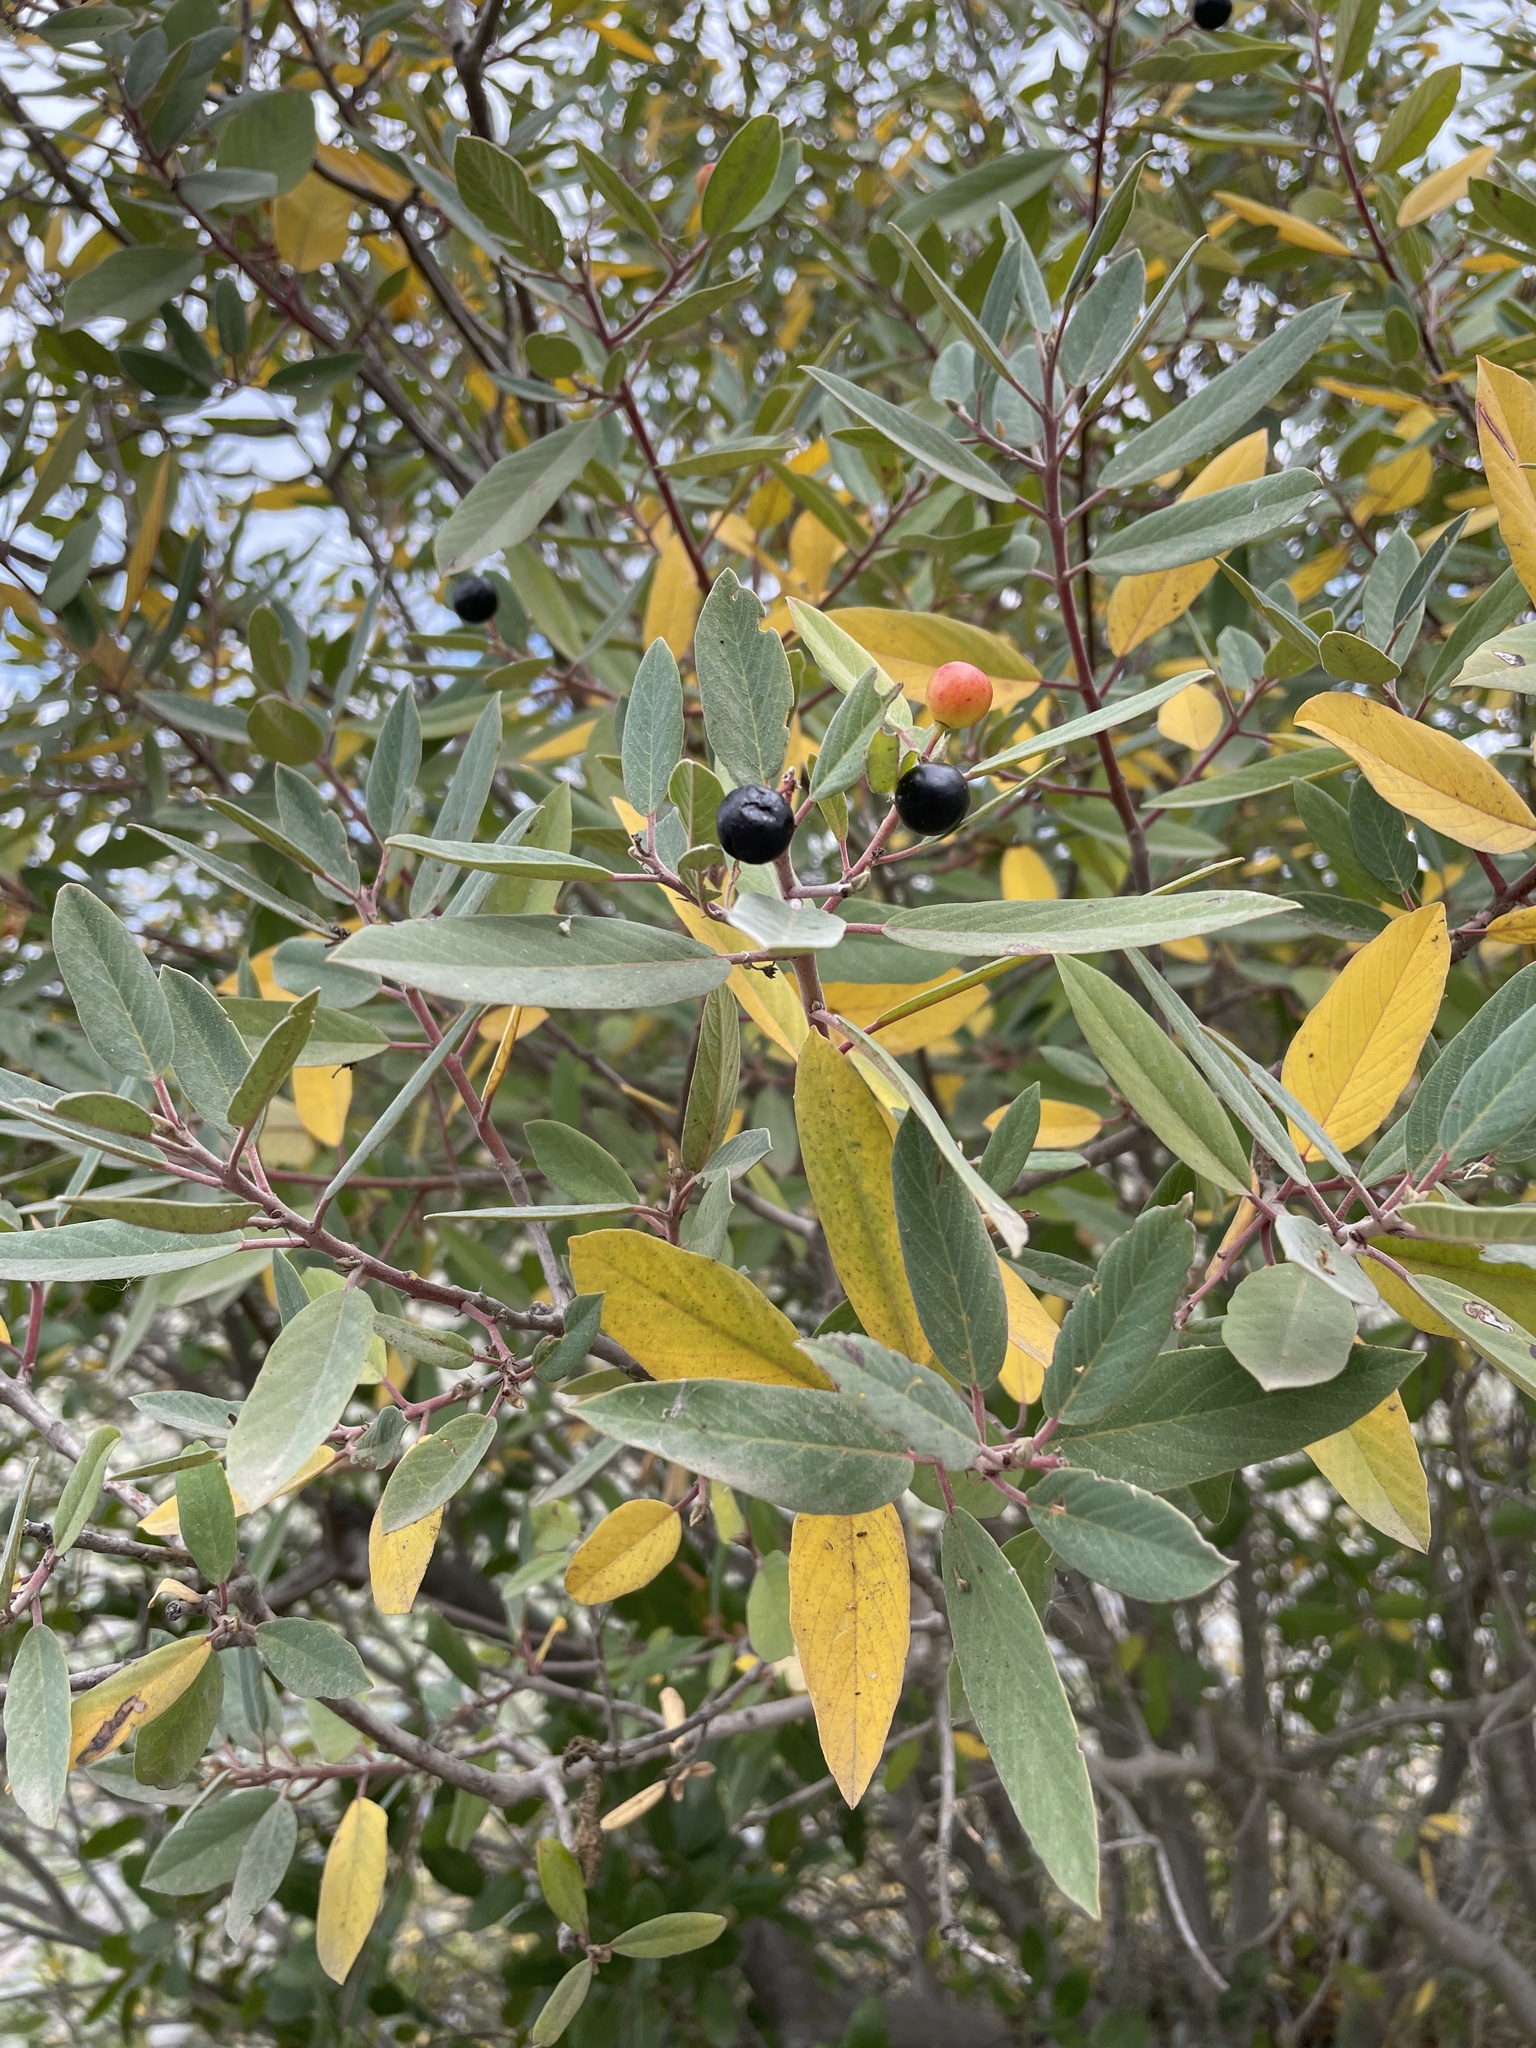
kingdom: Plantae
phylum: Tracheophyta
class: Magnoliopsida
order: Rosales
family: Rhamnaceae
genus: Frangula
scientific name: Frangula californica
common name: California buckthorn
